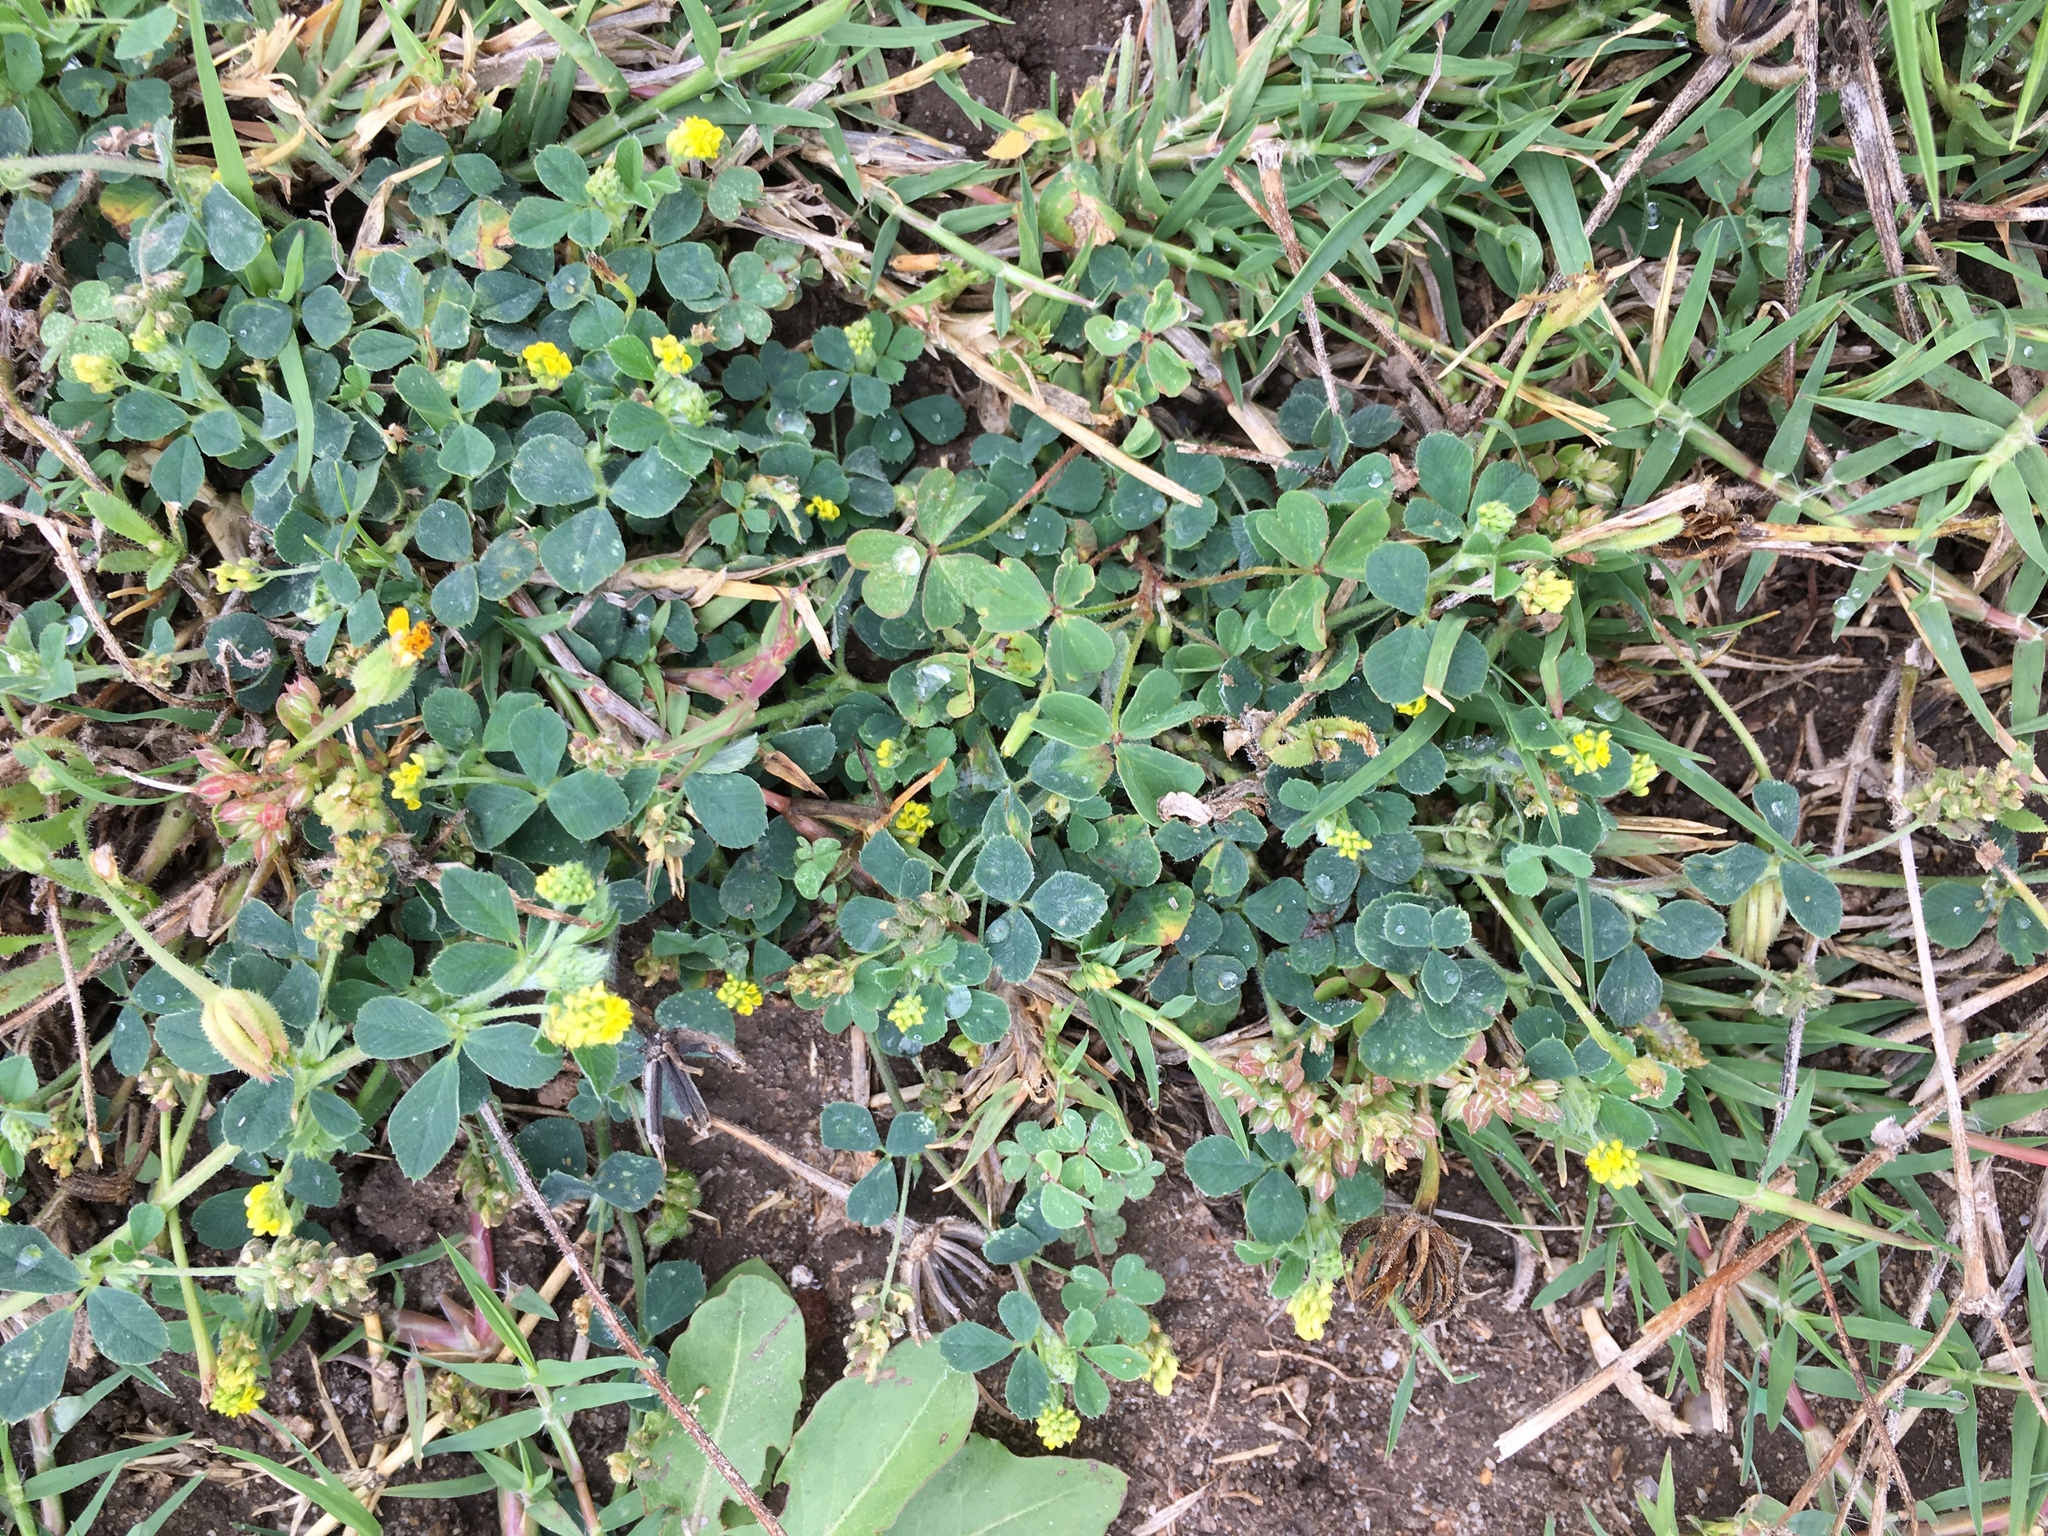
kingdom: Plantae
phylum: Tracheophyta
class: Magnoliopsida
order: Fabales
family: Fabaceae
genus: Medicago
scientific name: Medicago lupulina
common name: Black medick
